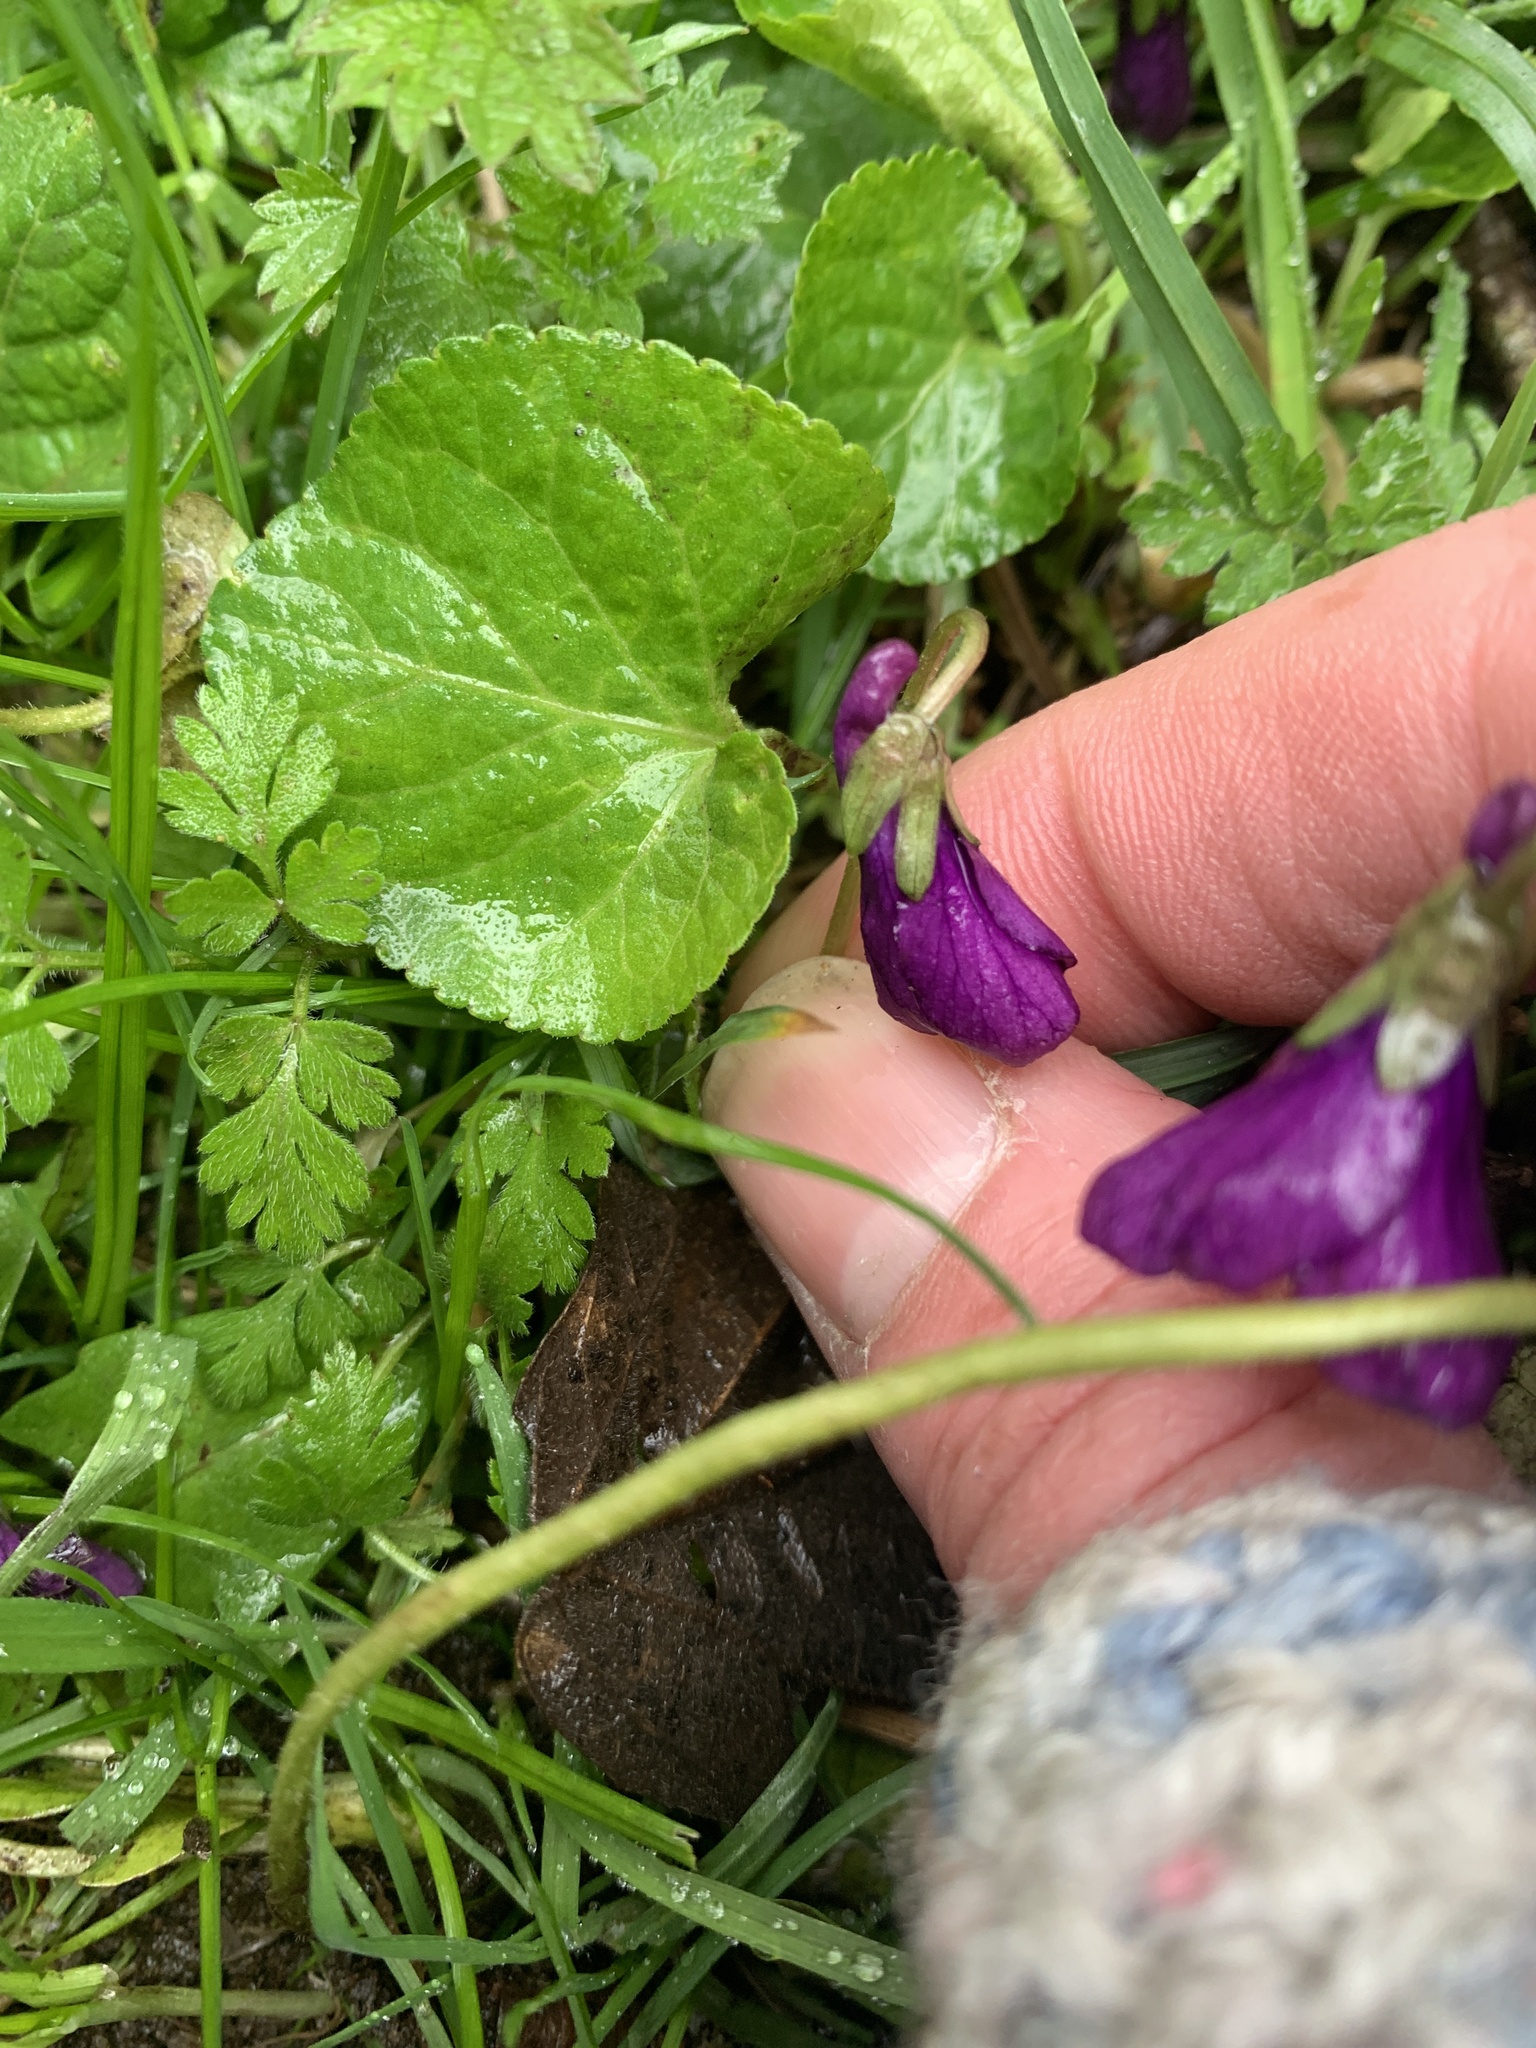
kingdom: Plantae
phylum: Tracheophyta
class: Magnoliopsida
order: Malpighiales
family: Violaceae
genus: Viola
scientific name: Viola odorata
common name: Sweet violet
